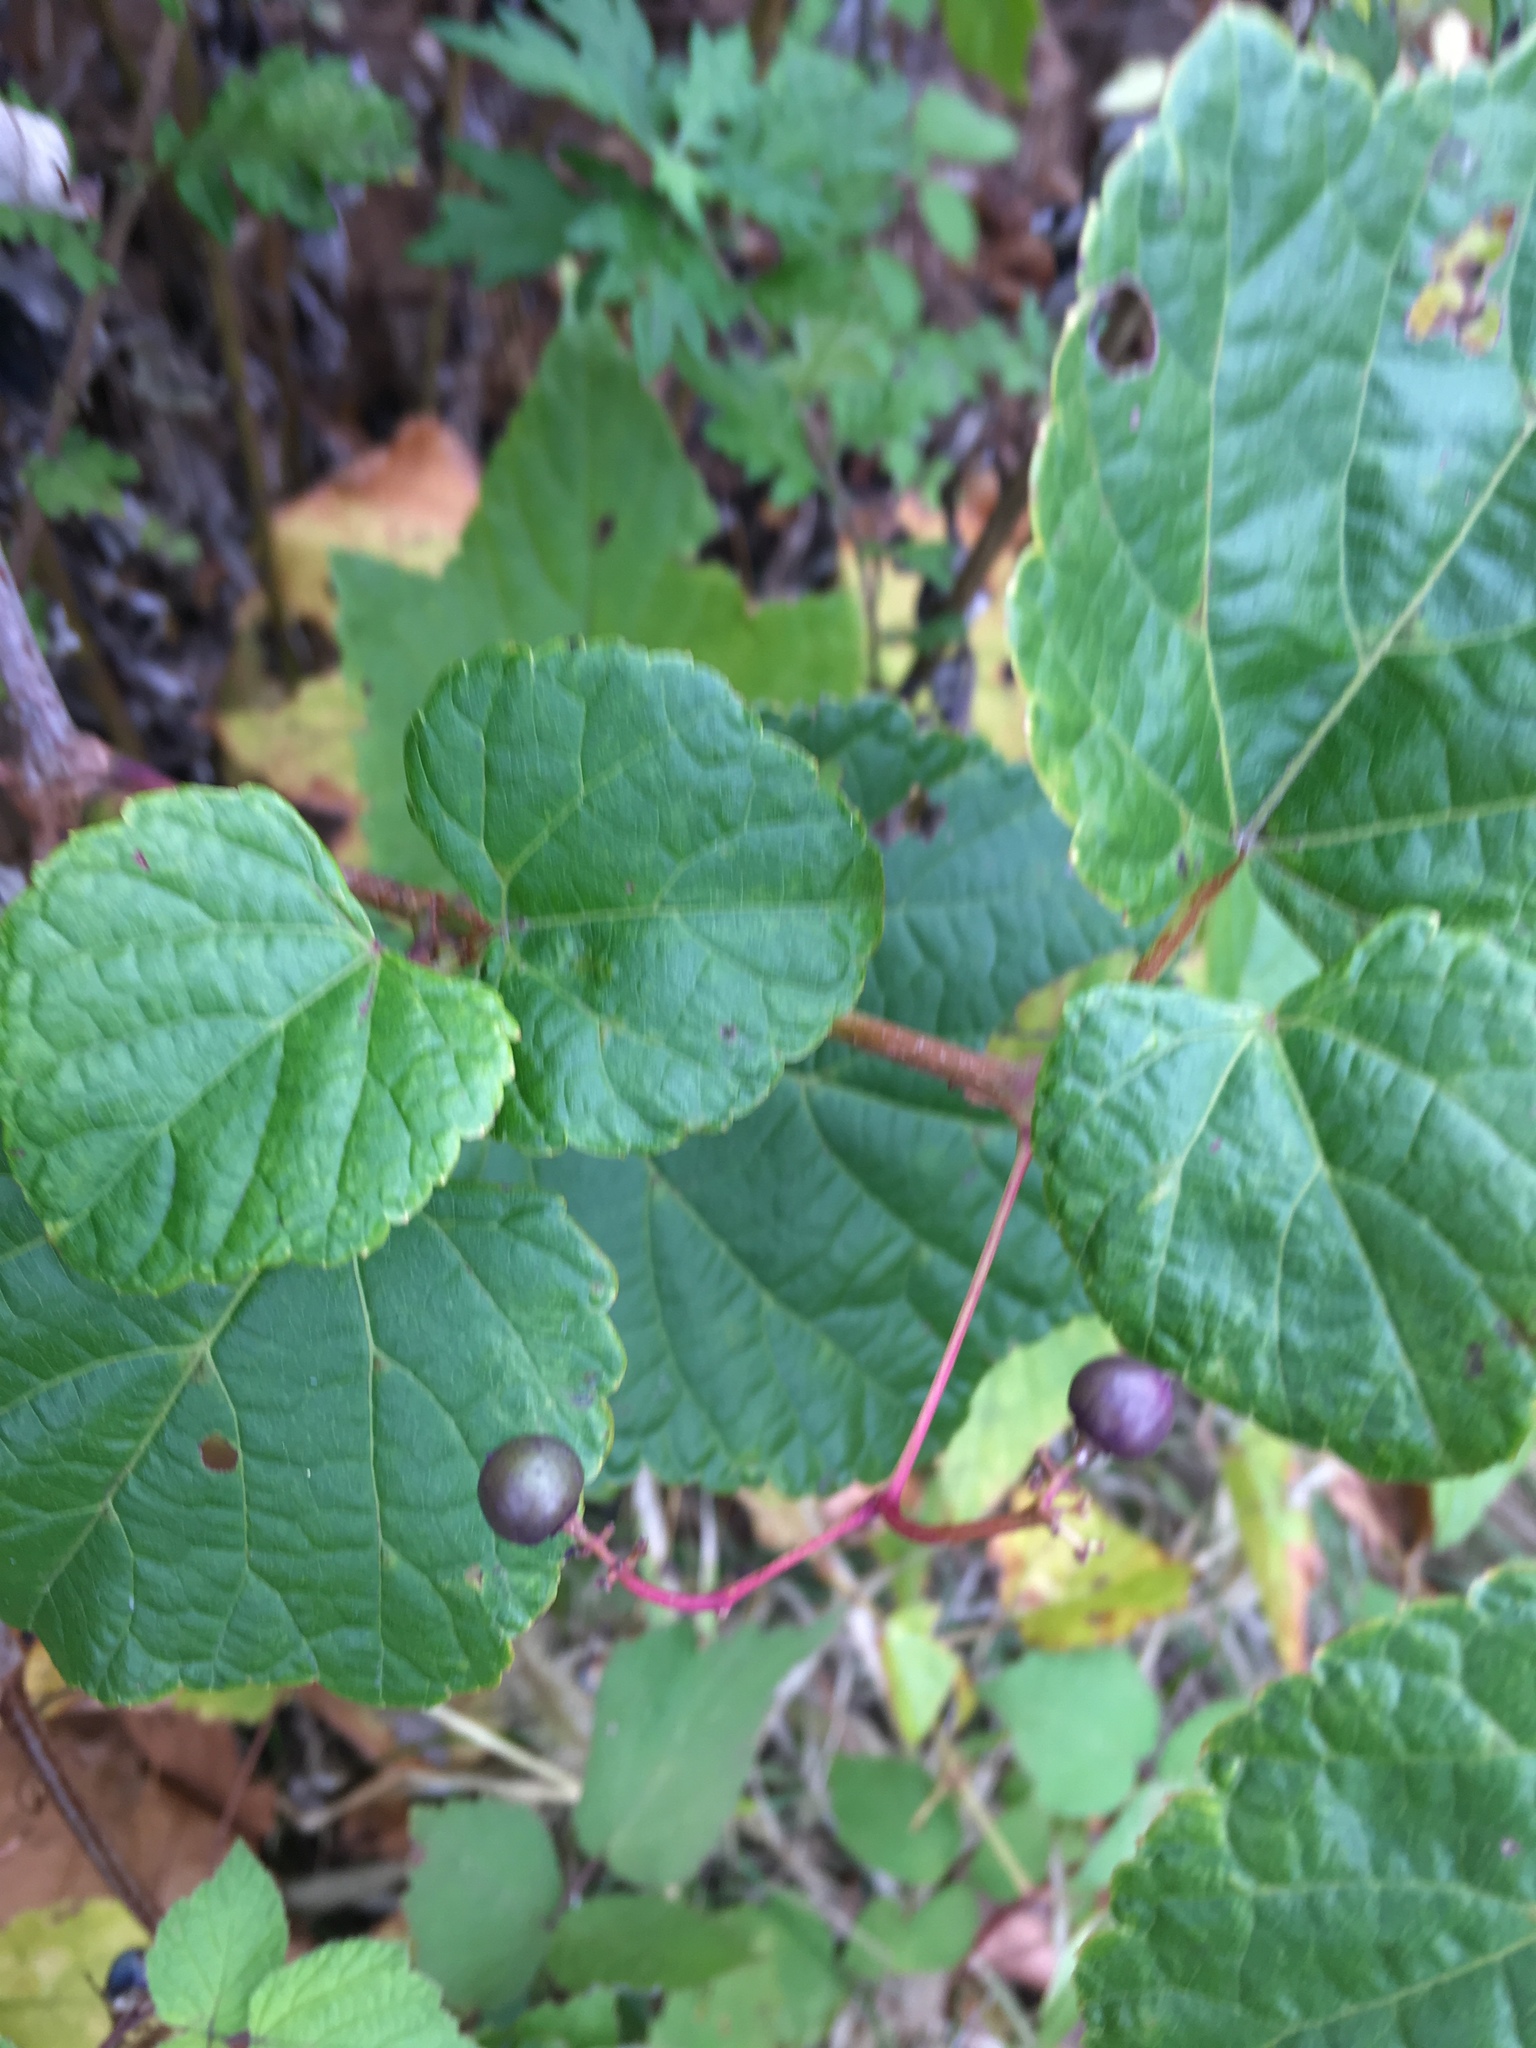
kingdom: Plantae
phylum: Tracheophyta
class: Magnoliopsida
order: Vitales
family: Vitaceae
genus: Ampelopsis
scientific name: Ampelopsis glandulosa
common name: Amur peppervine
